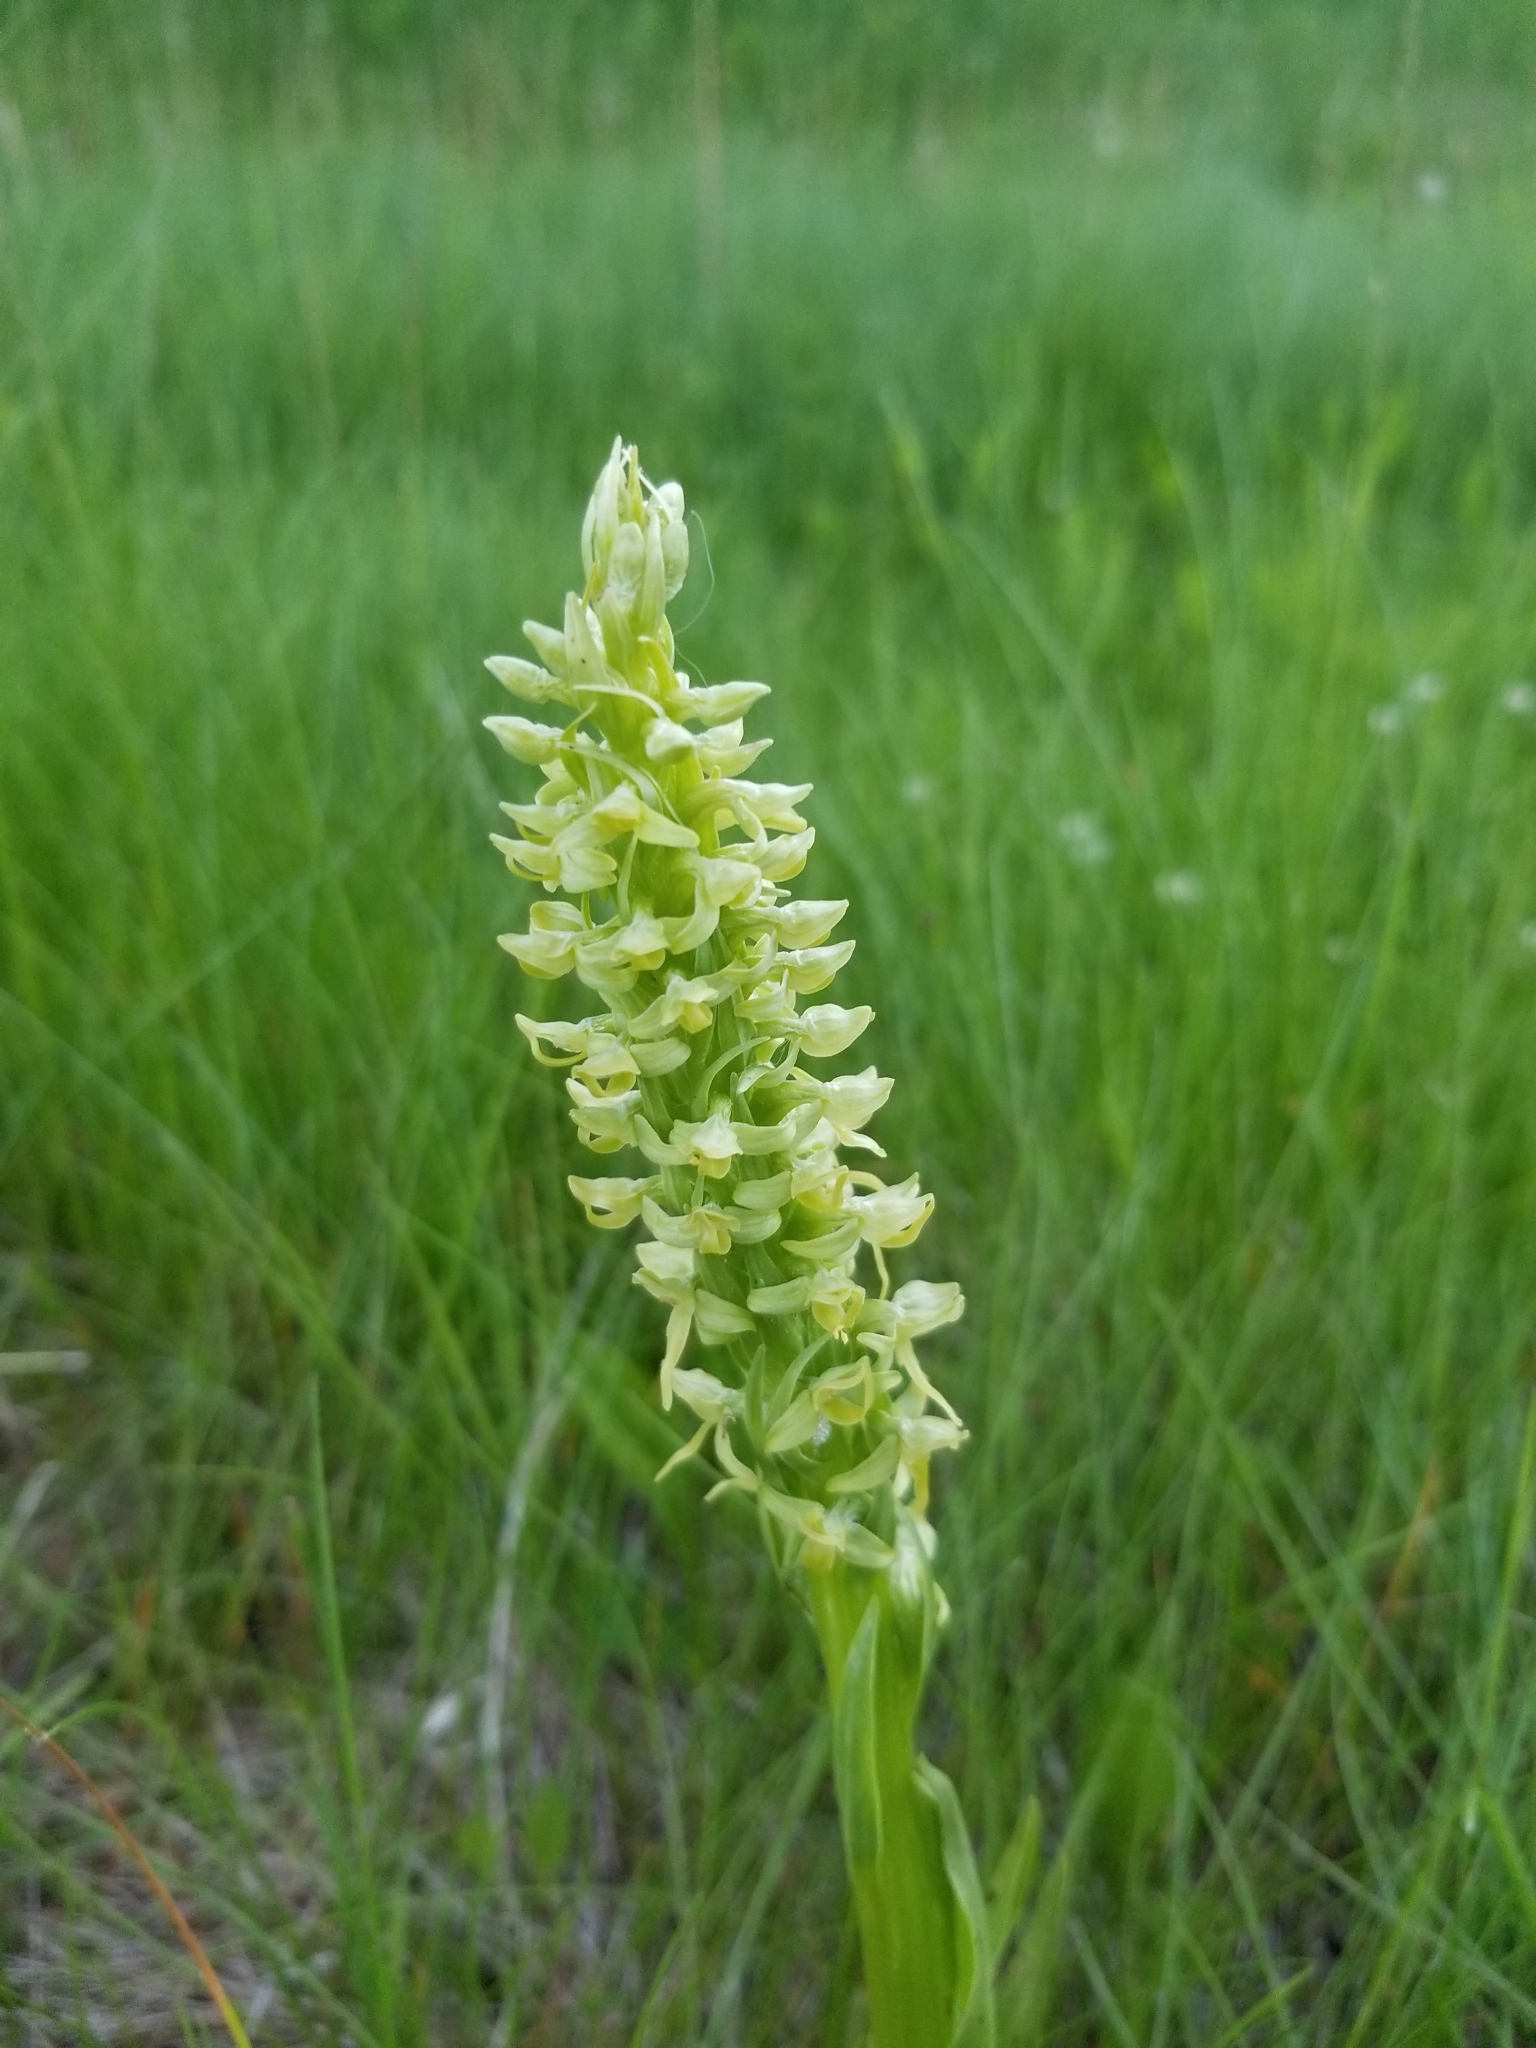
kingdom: Plantae
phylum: Tracheophyta
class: Liliopsida
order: Asparagales
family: Orchidaceae
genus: Platanthera
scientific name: Platanthera huronensis
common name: Fragrant green orchid
